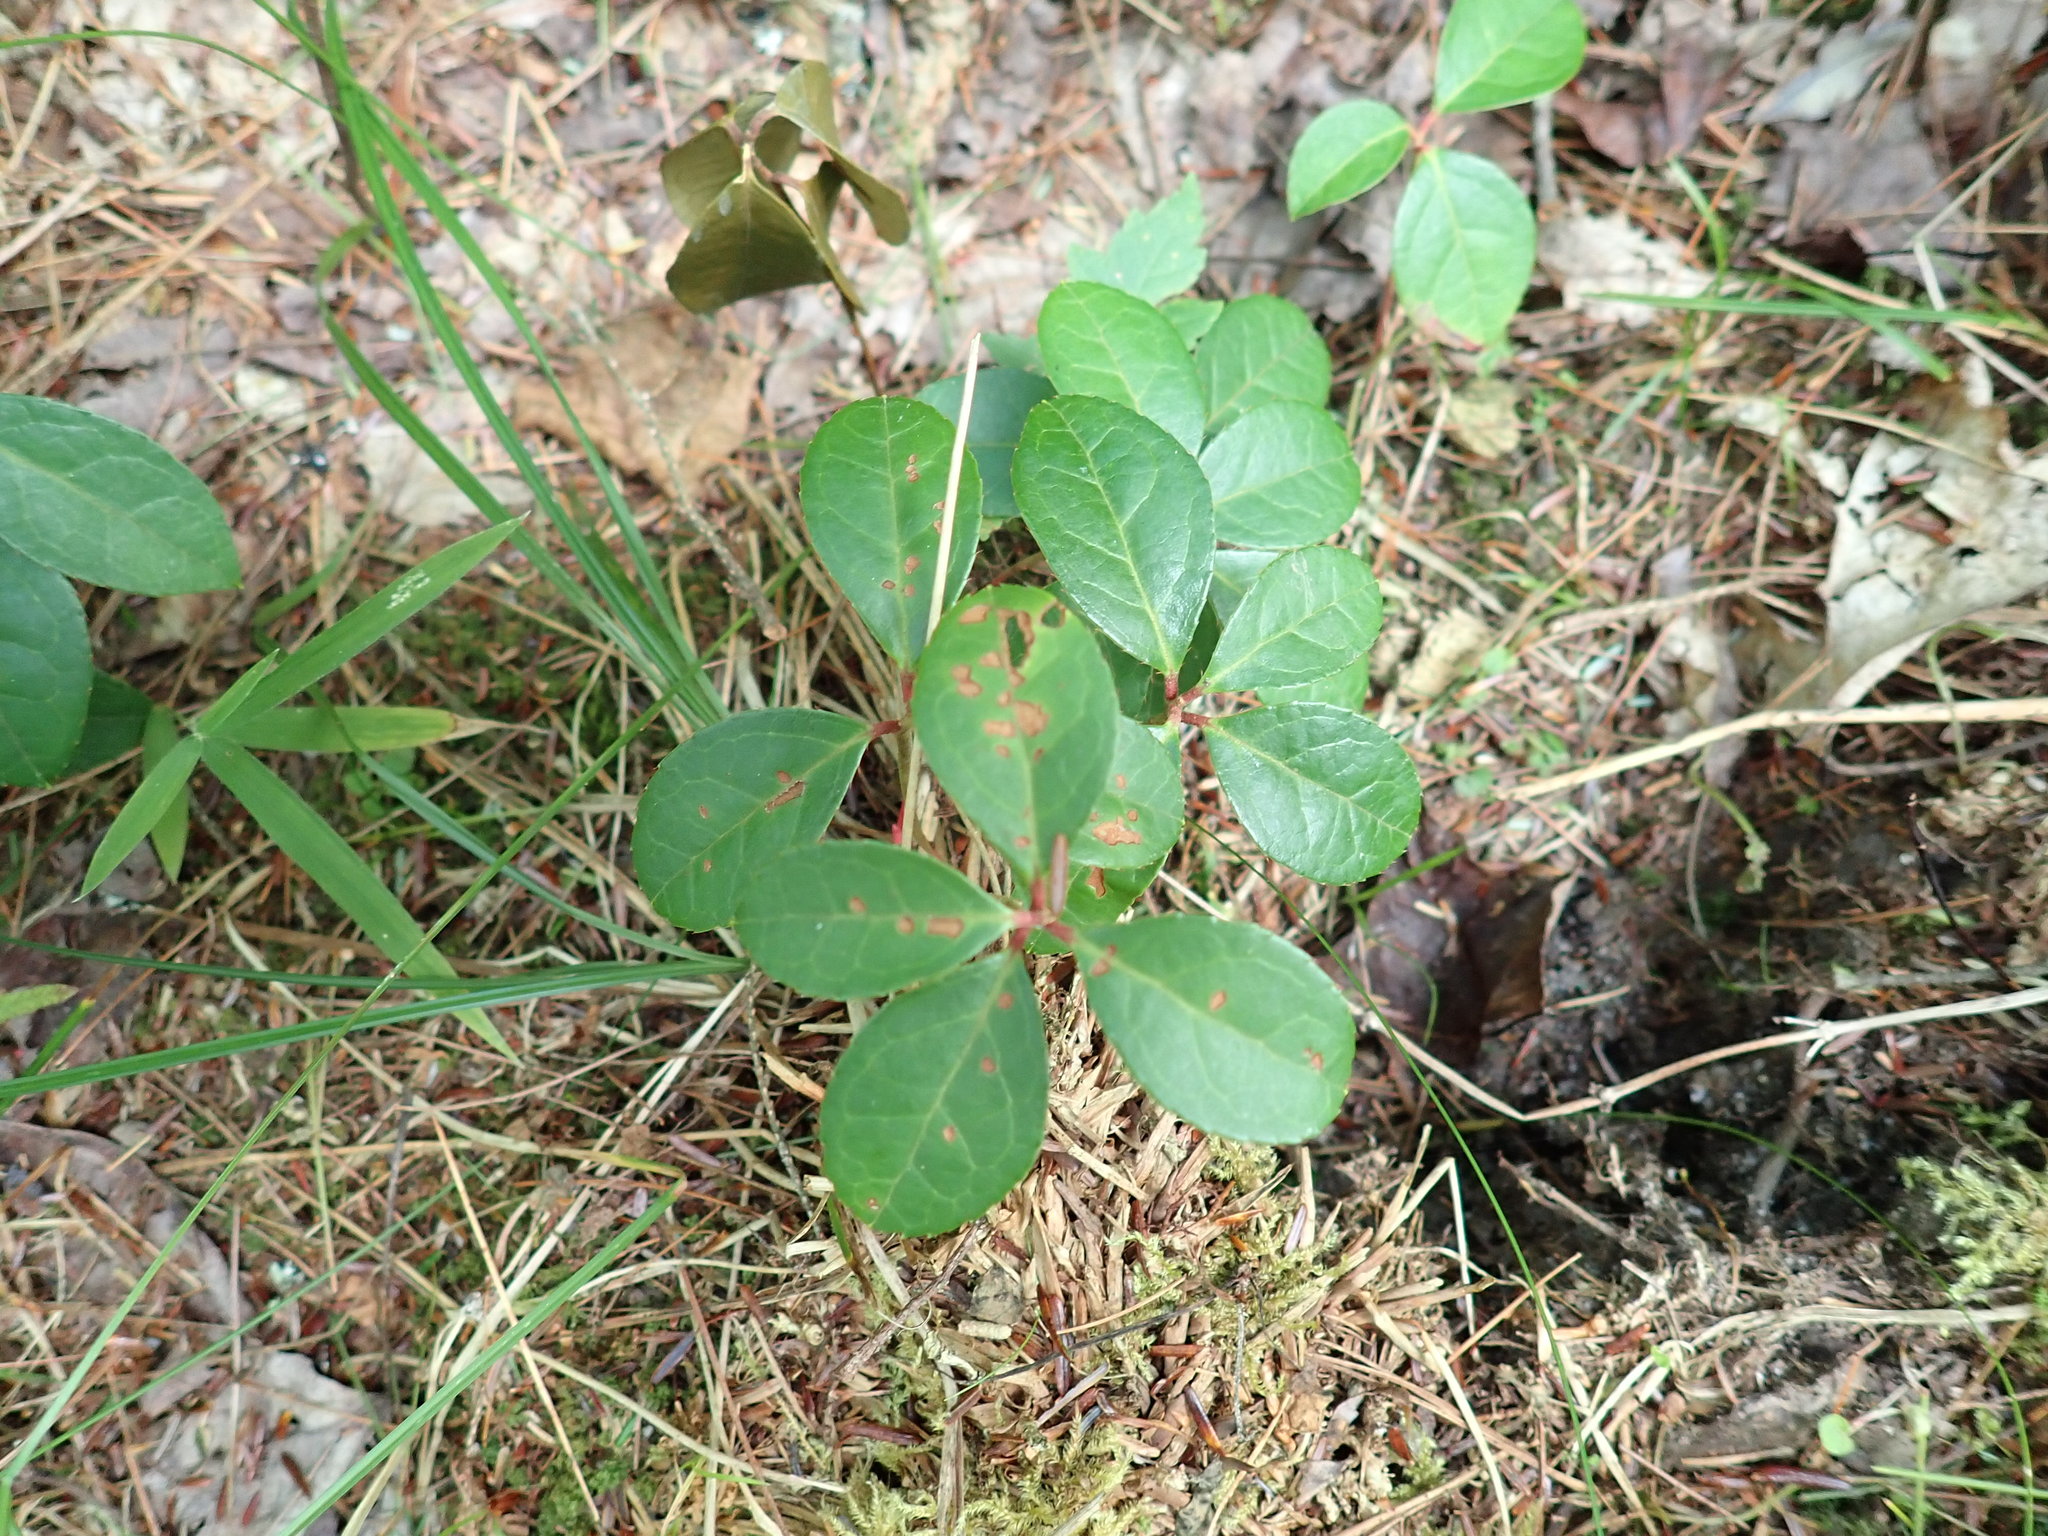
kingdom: Plantae
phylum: Tracheophyta
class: Magnoliopsida
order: Ericales
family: Ericaceae
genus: Gaultheria
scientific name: Gaultheria procumbens
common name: Checkerberry
